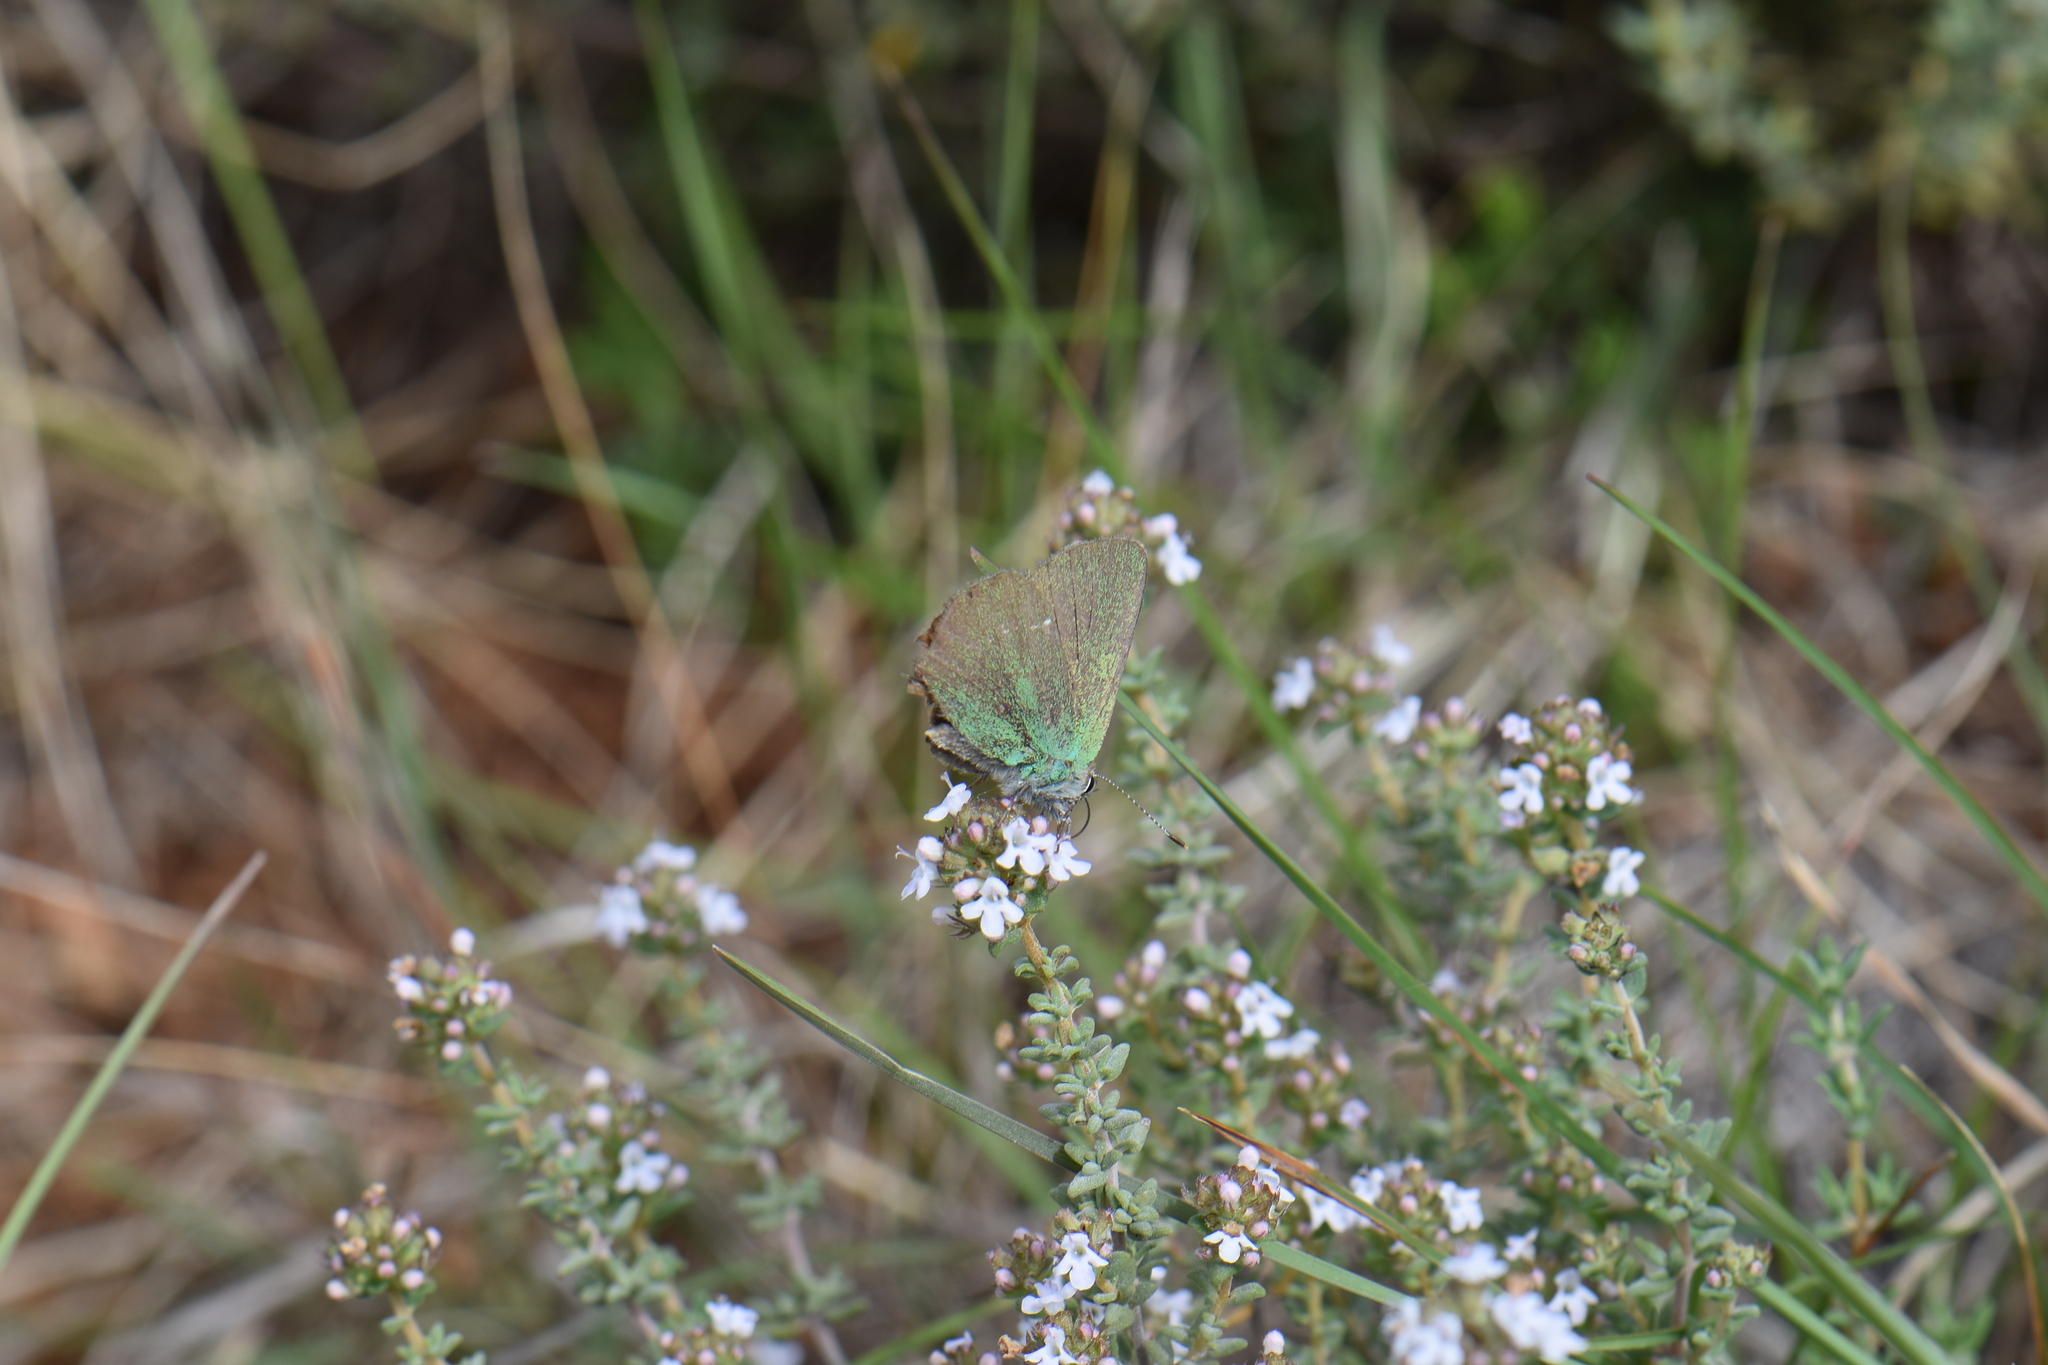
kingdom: Animalia
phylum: Arthropoda
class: Insecta
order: Lepidoptera
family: Lycaenidae
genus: Callophrys
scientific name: Callophrys rubi
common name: Green hairstreak
